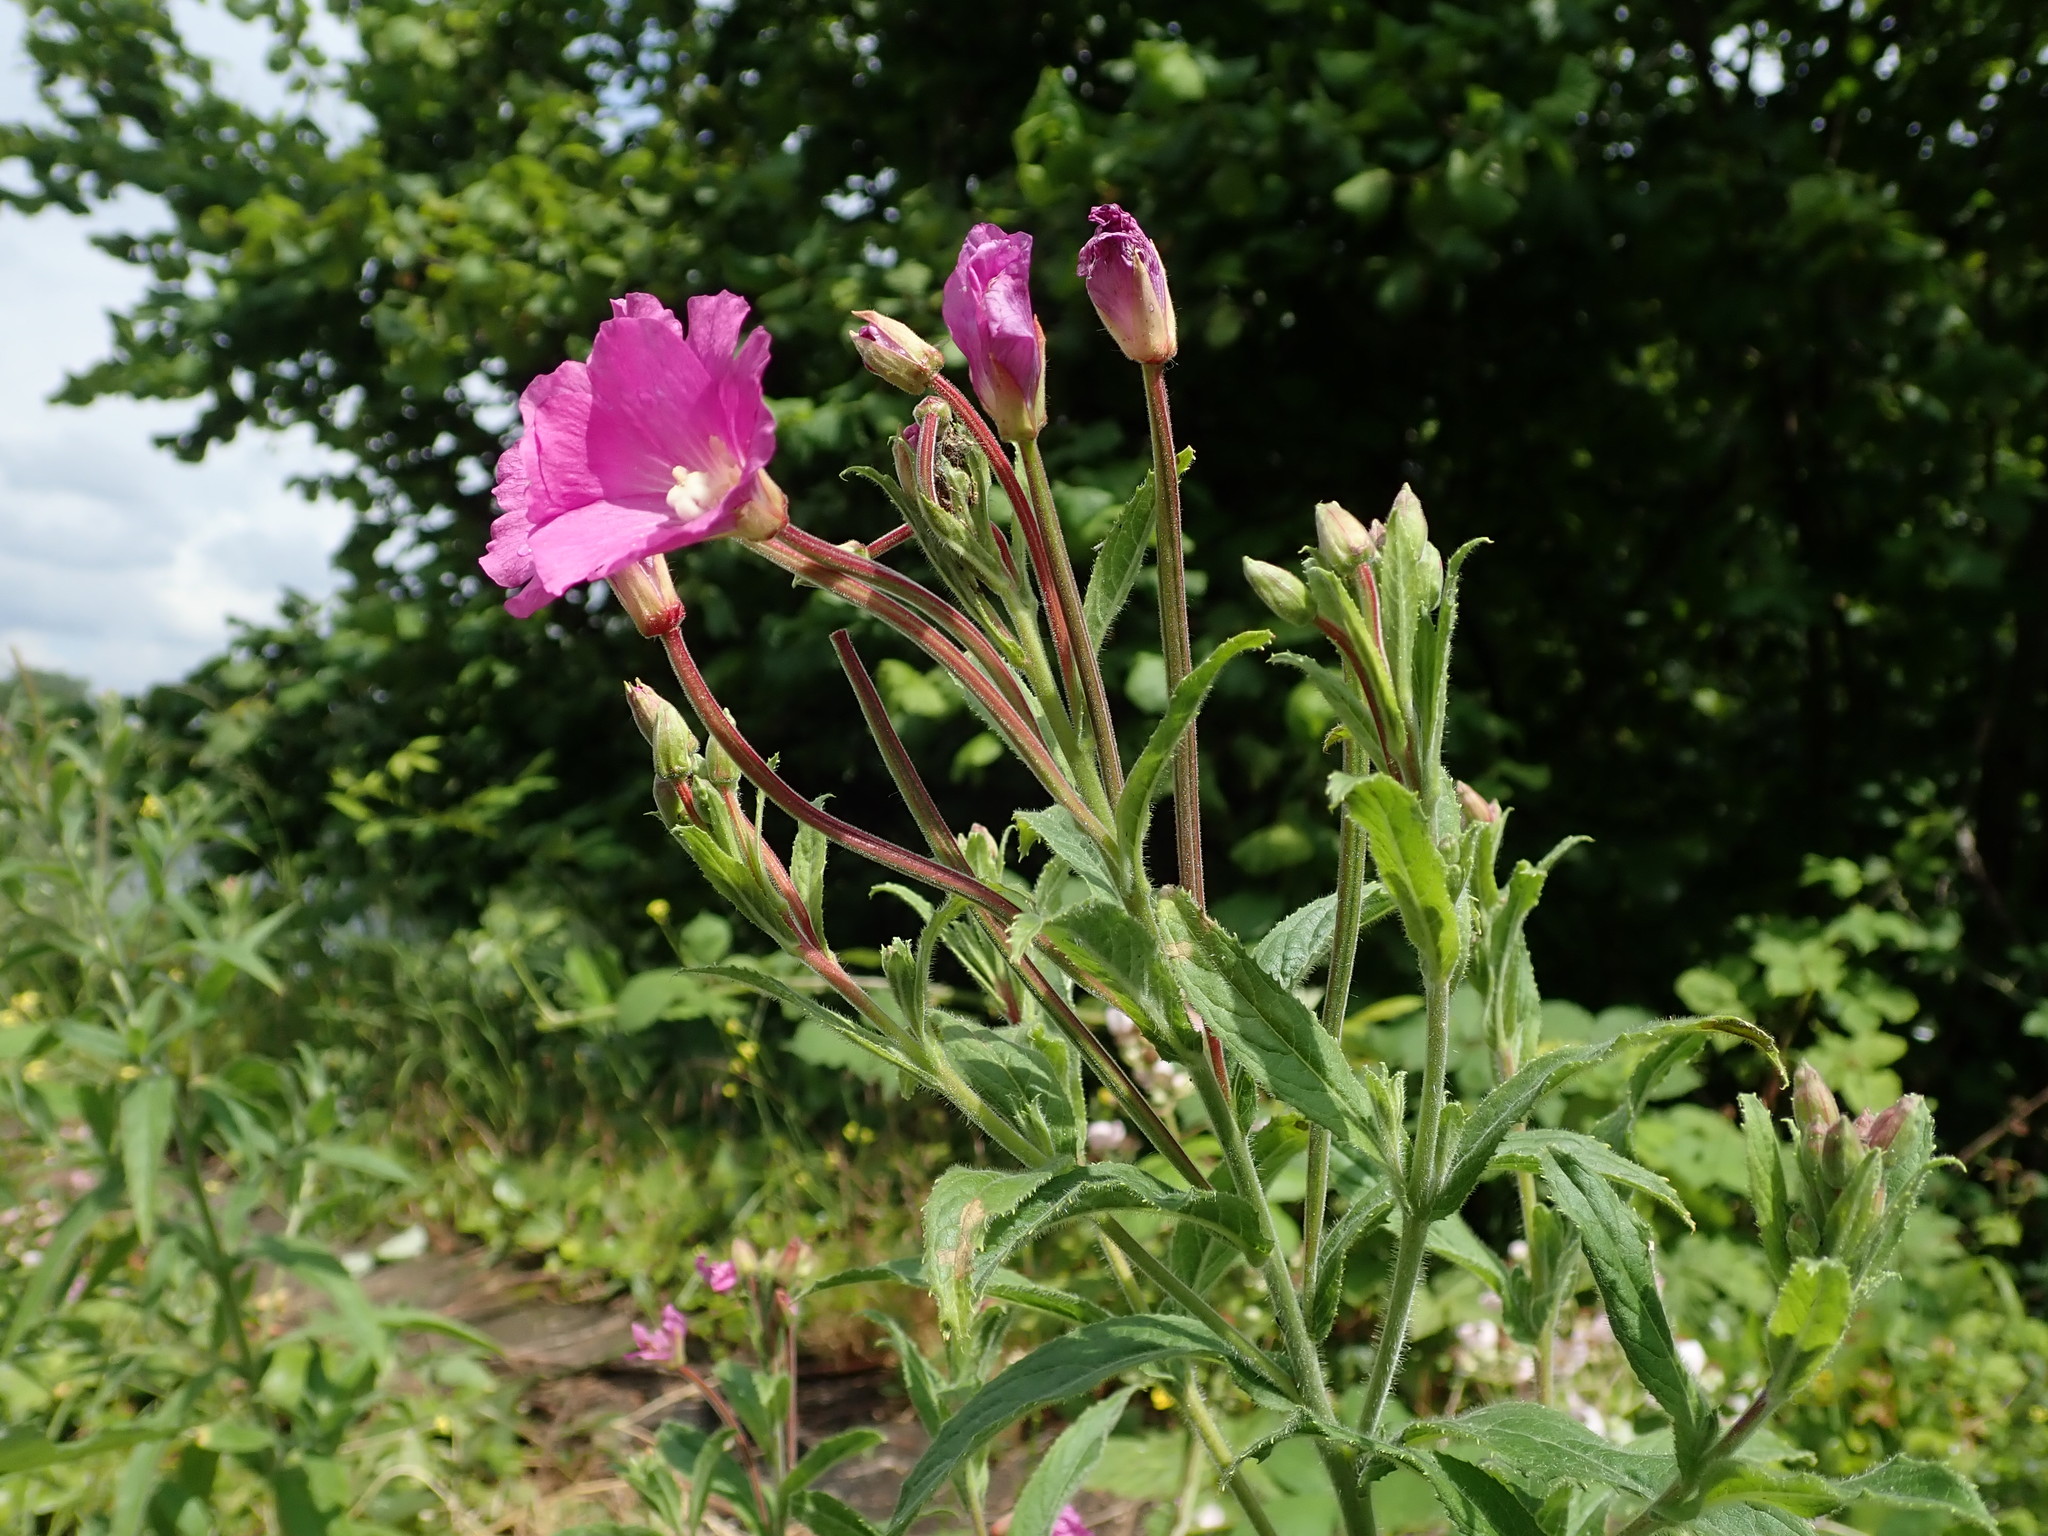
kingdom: Plantae
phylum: Tracheophyta
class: Magnoliopsida
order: Myrtales
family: Onagraceae
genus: Epilobium
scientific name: Epilobium hirsutum
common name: Great willowherb
